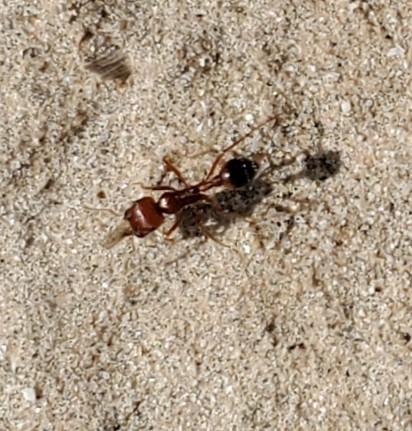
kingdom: Animalia
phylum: Arthropoda
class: Insecta
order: Hymenoptera
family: Formicidae
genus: Pogonomyrmex
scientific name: Pogonomyrmex californicus
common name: California harvester ant
